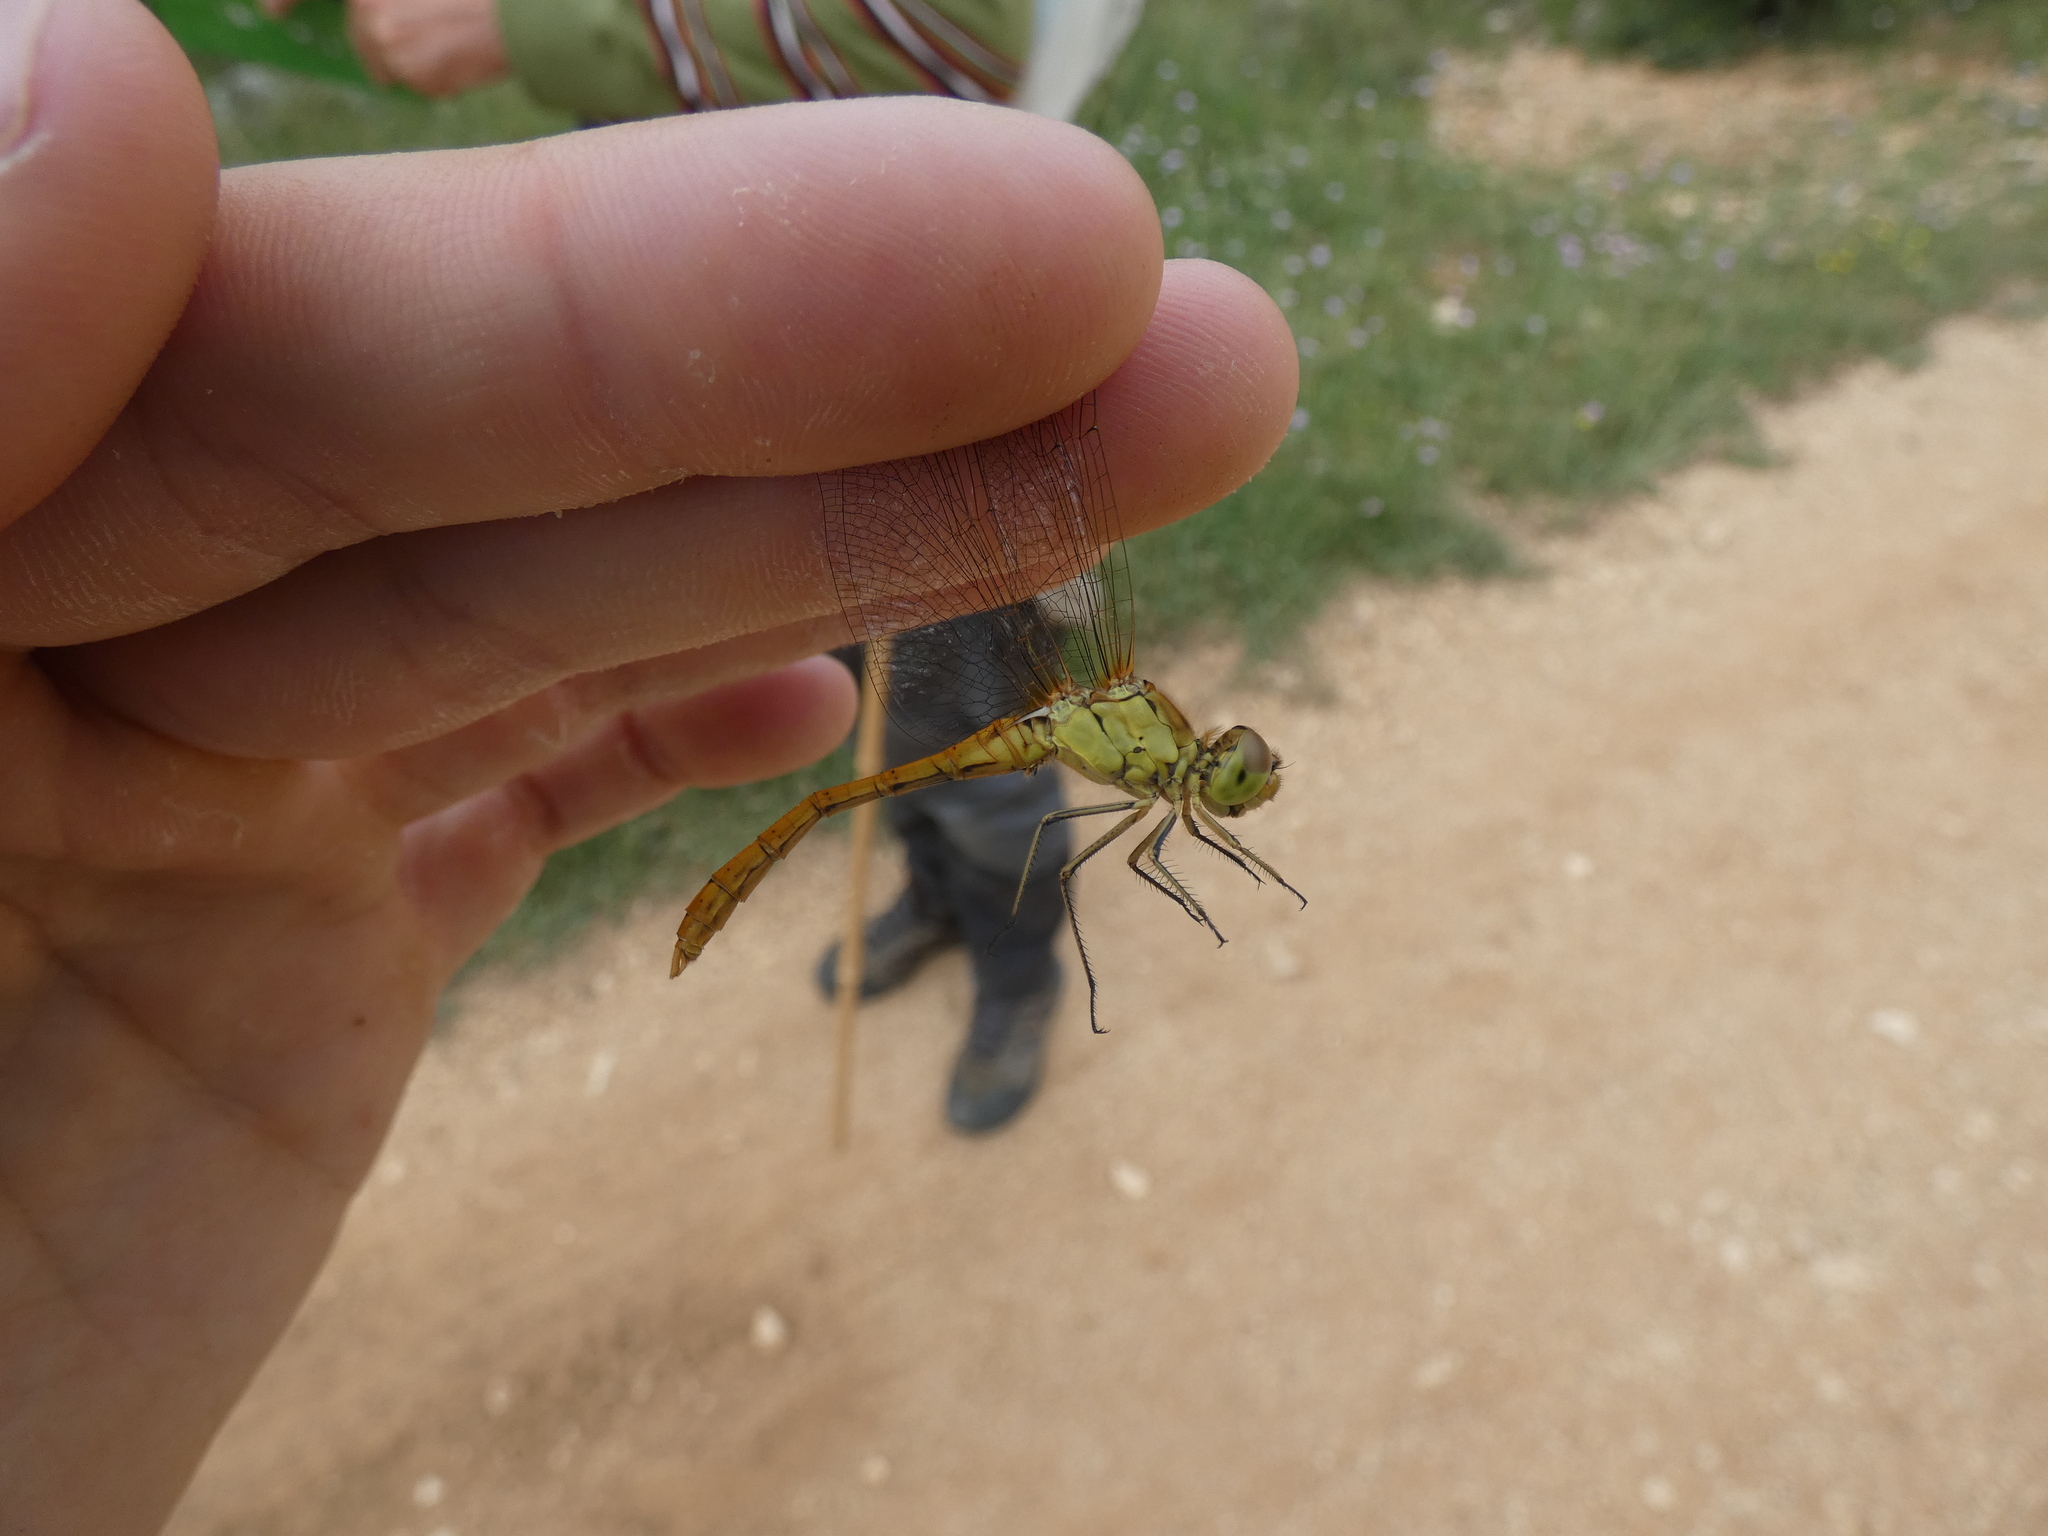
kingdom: Animalia
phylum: Arthropoda
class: Insecta
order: Odonata
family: Libellulidae
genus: Sympetrum
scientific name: Sympetrum meridionale
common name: Southern darter
